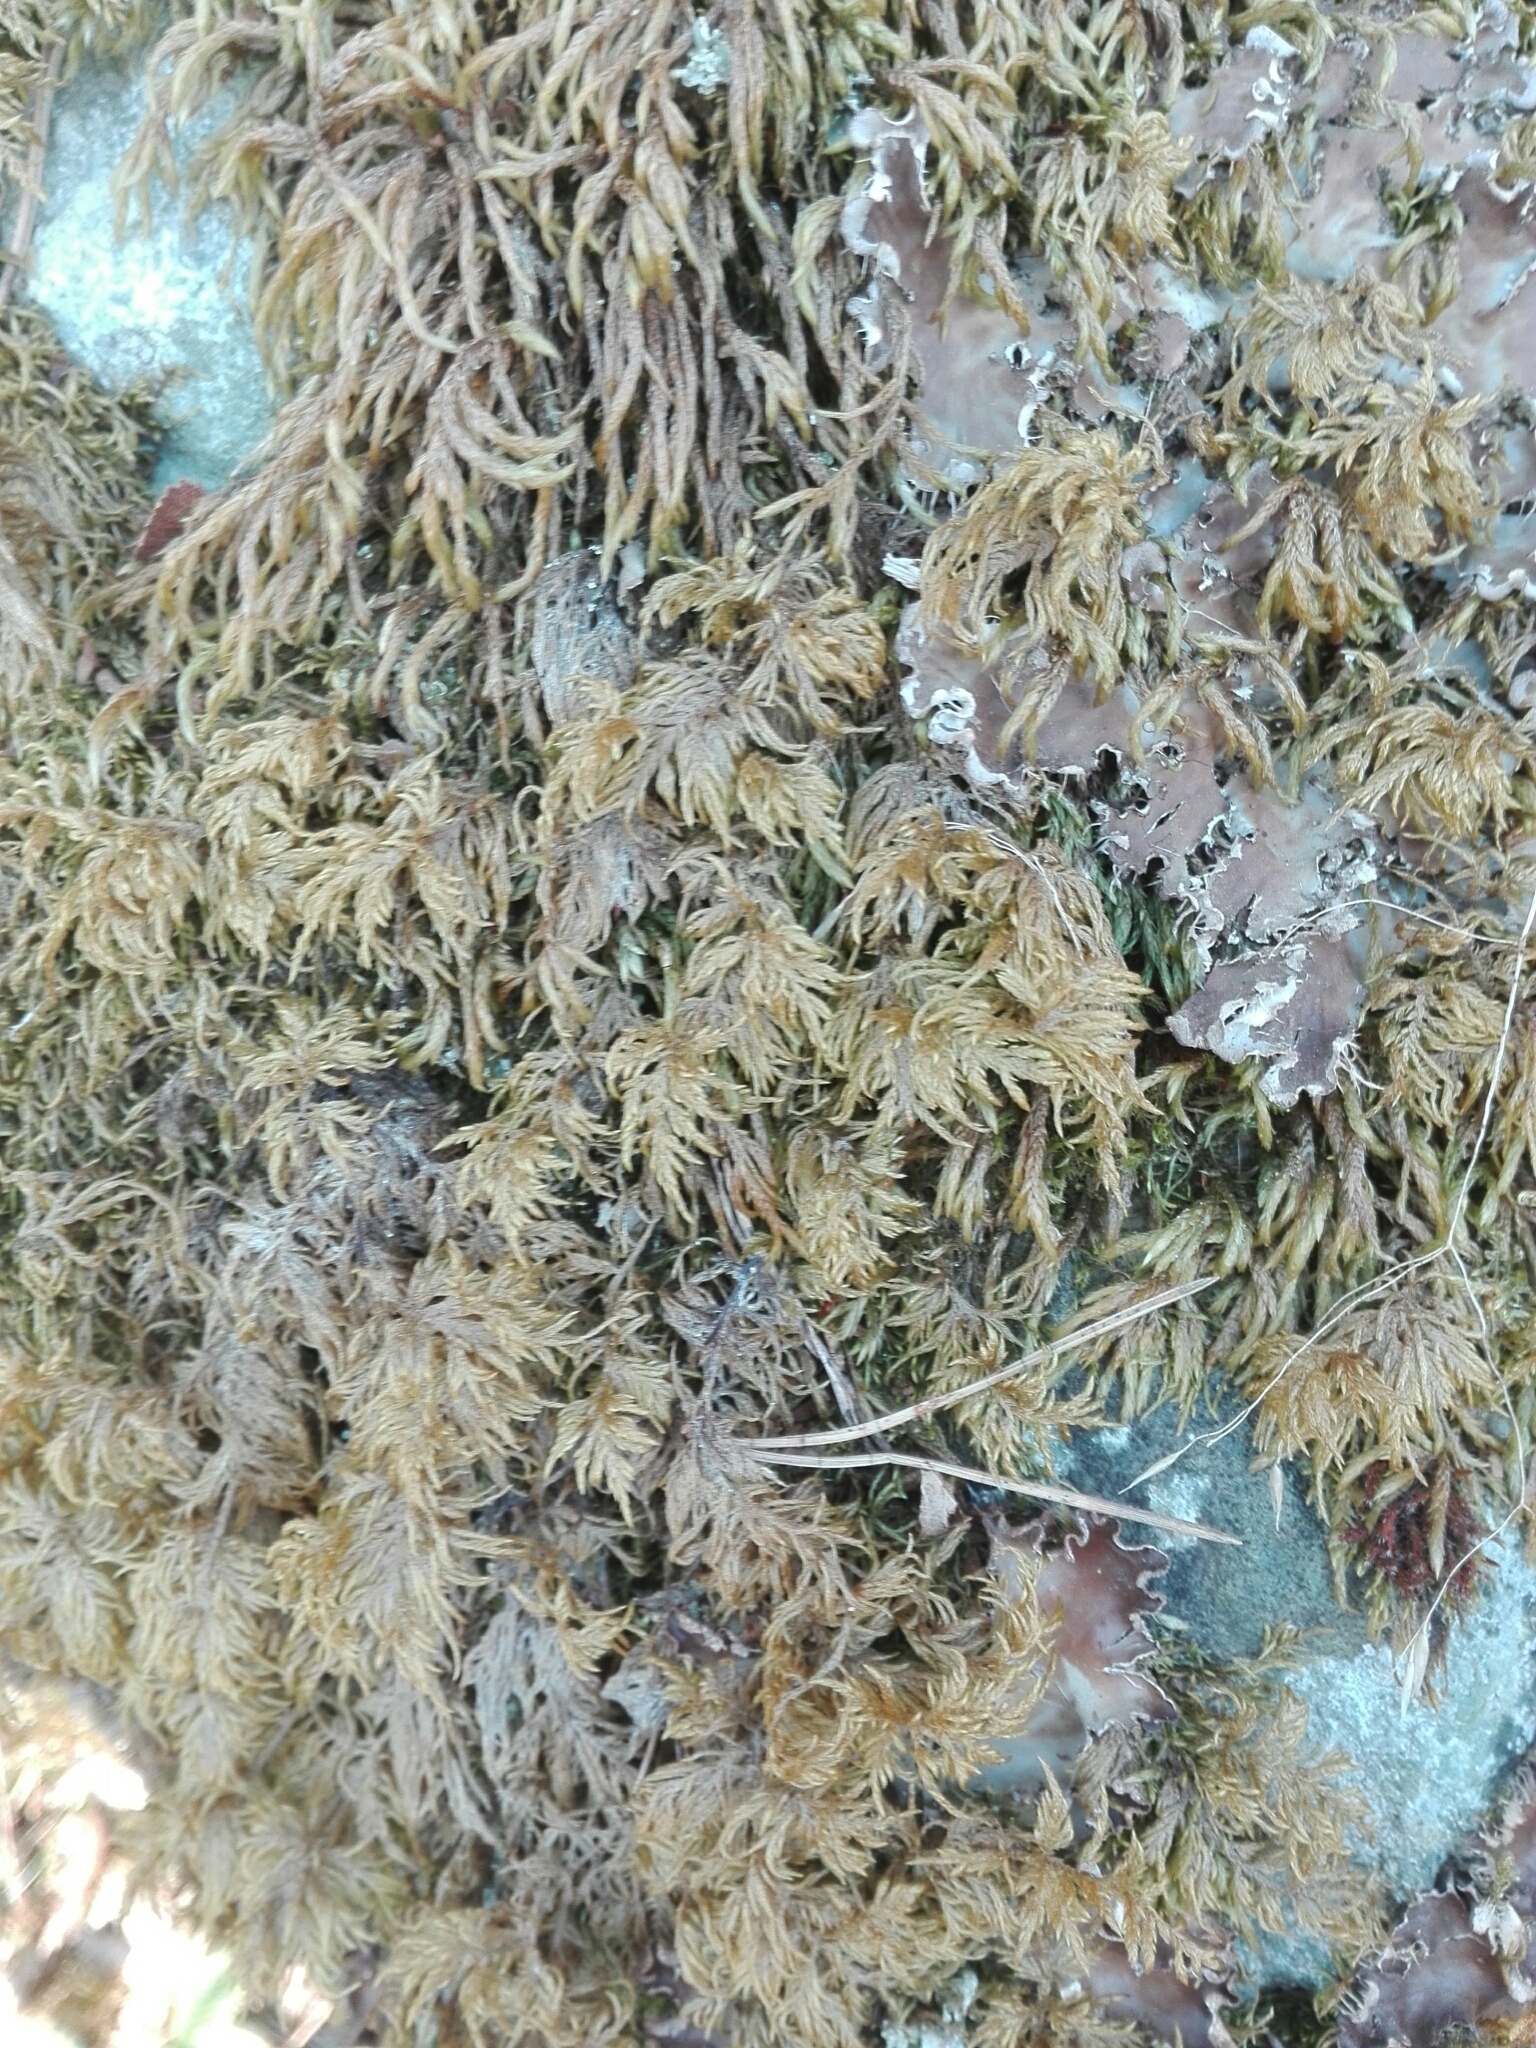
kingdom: Plantae
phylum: Bryophyta
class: Bryopsida
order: Hypnales
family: Hylocomiaceae
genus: Hylocomium
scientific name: Hylocomium splendens
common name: Stairstep moss
